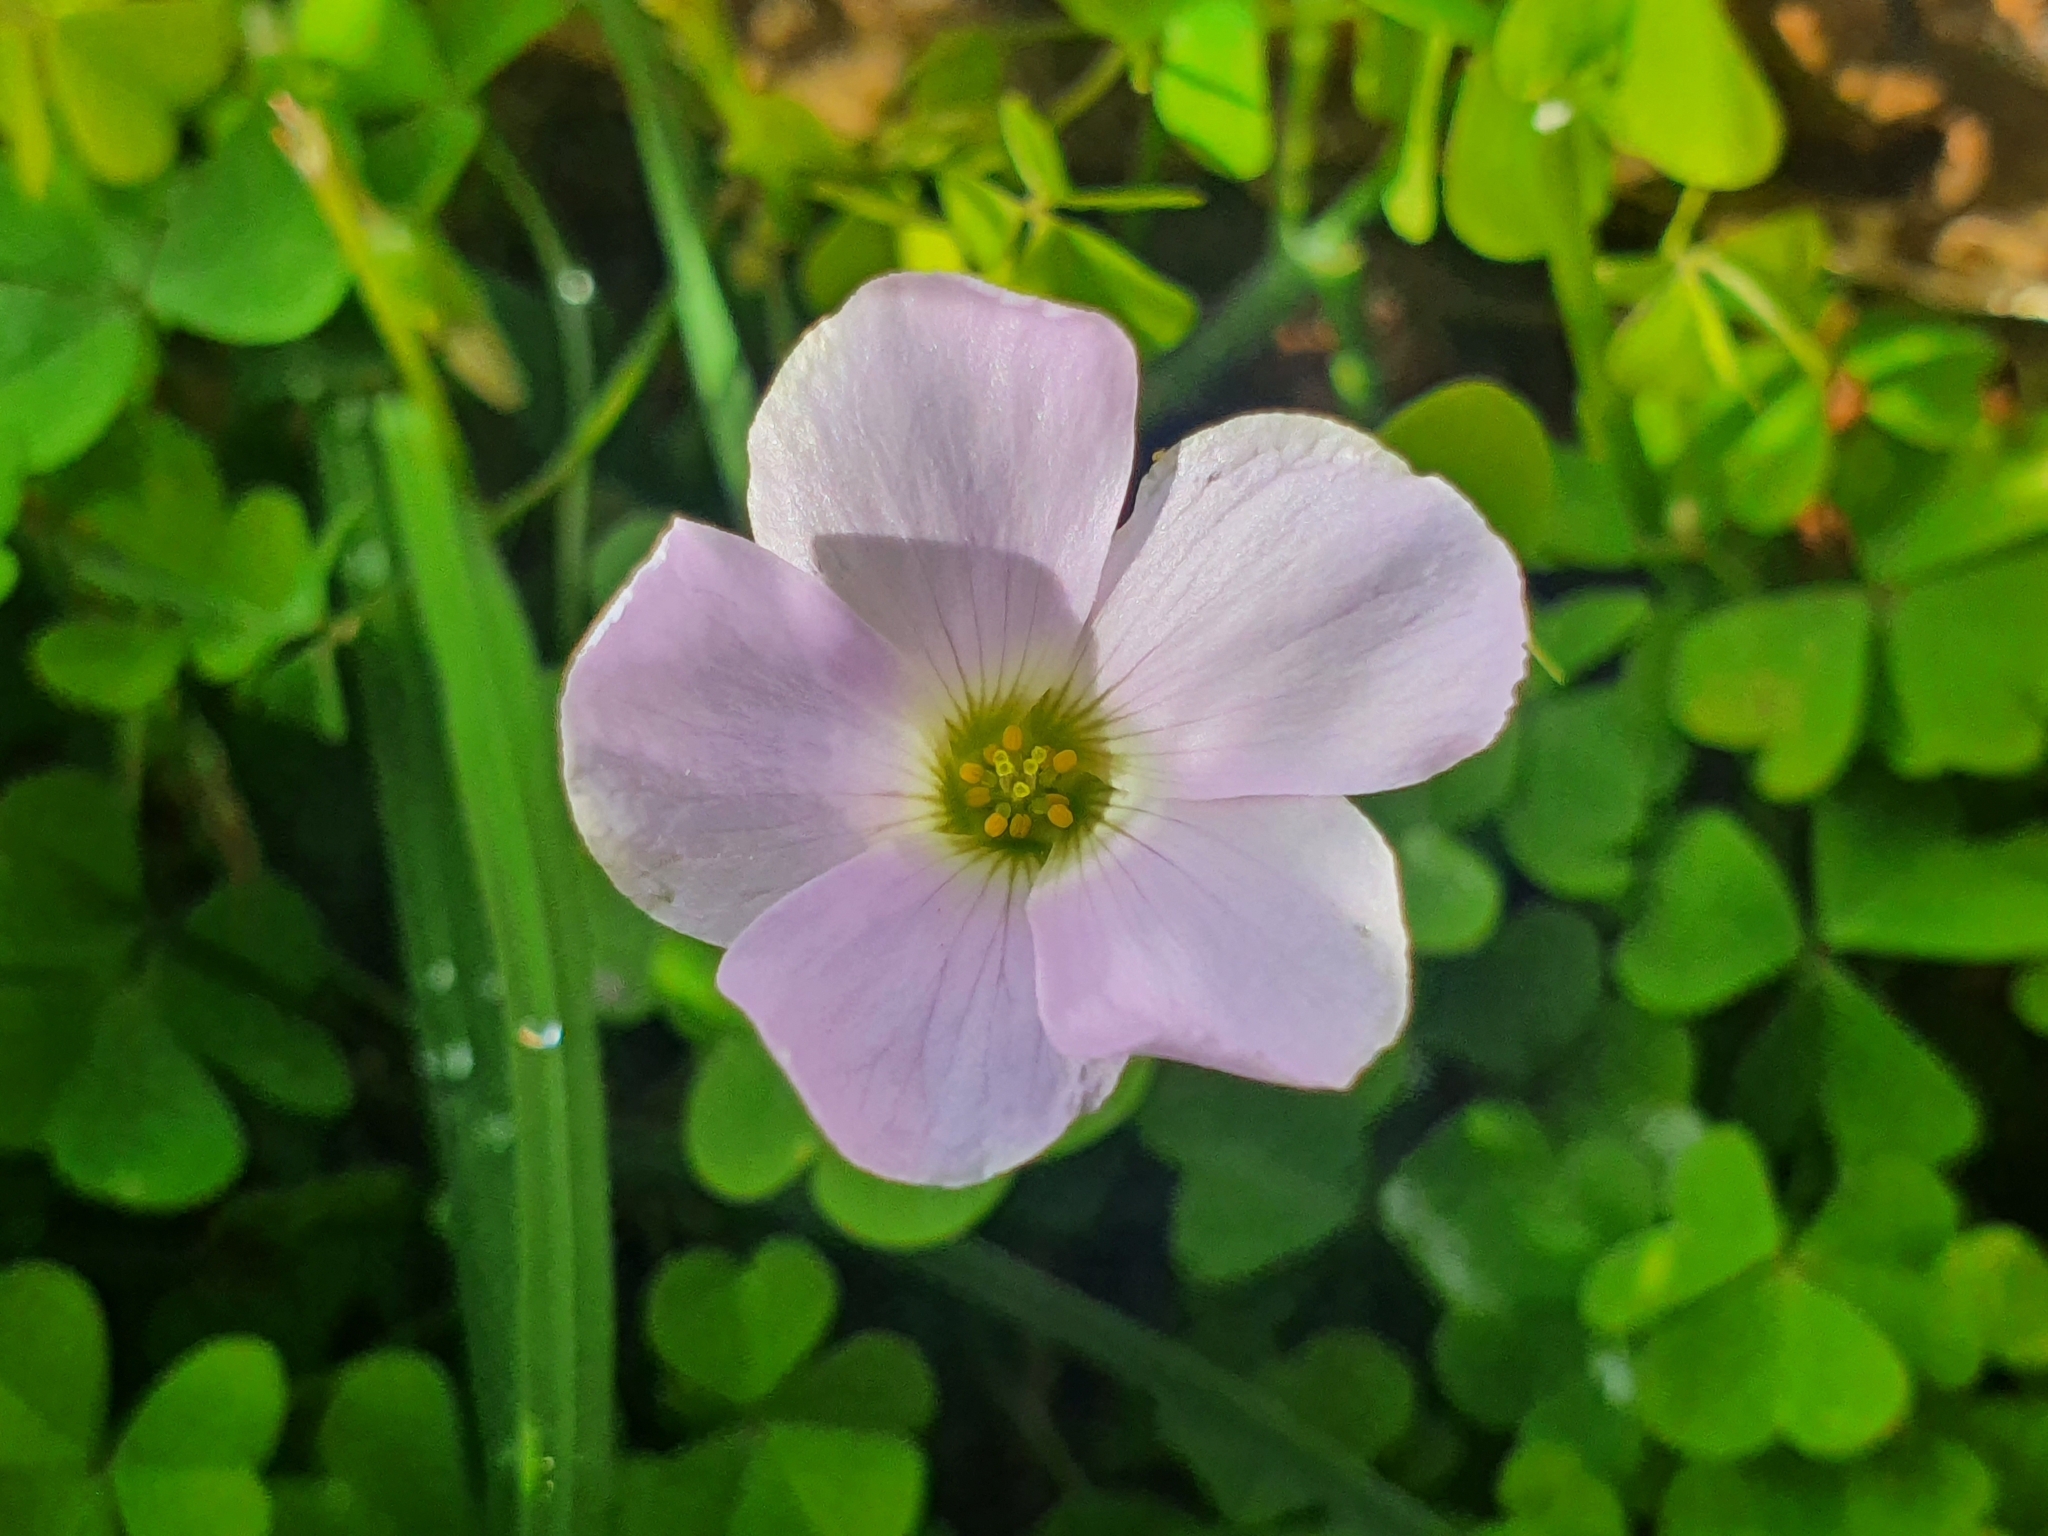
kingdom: Plantae
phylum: Tracheophyta
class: Magnoliopsida
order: Oxalidales
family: Oxalidaceae
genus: Oxalis
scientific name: Oxalis incarnata
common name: Pale pink-sorrel
